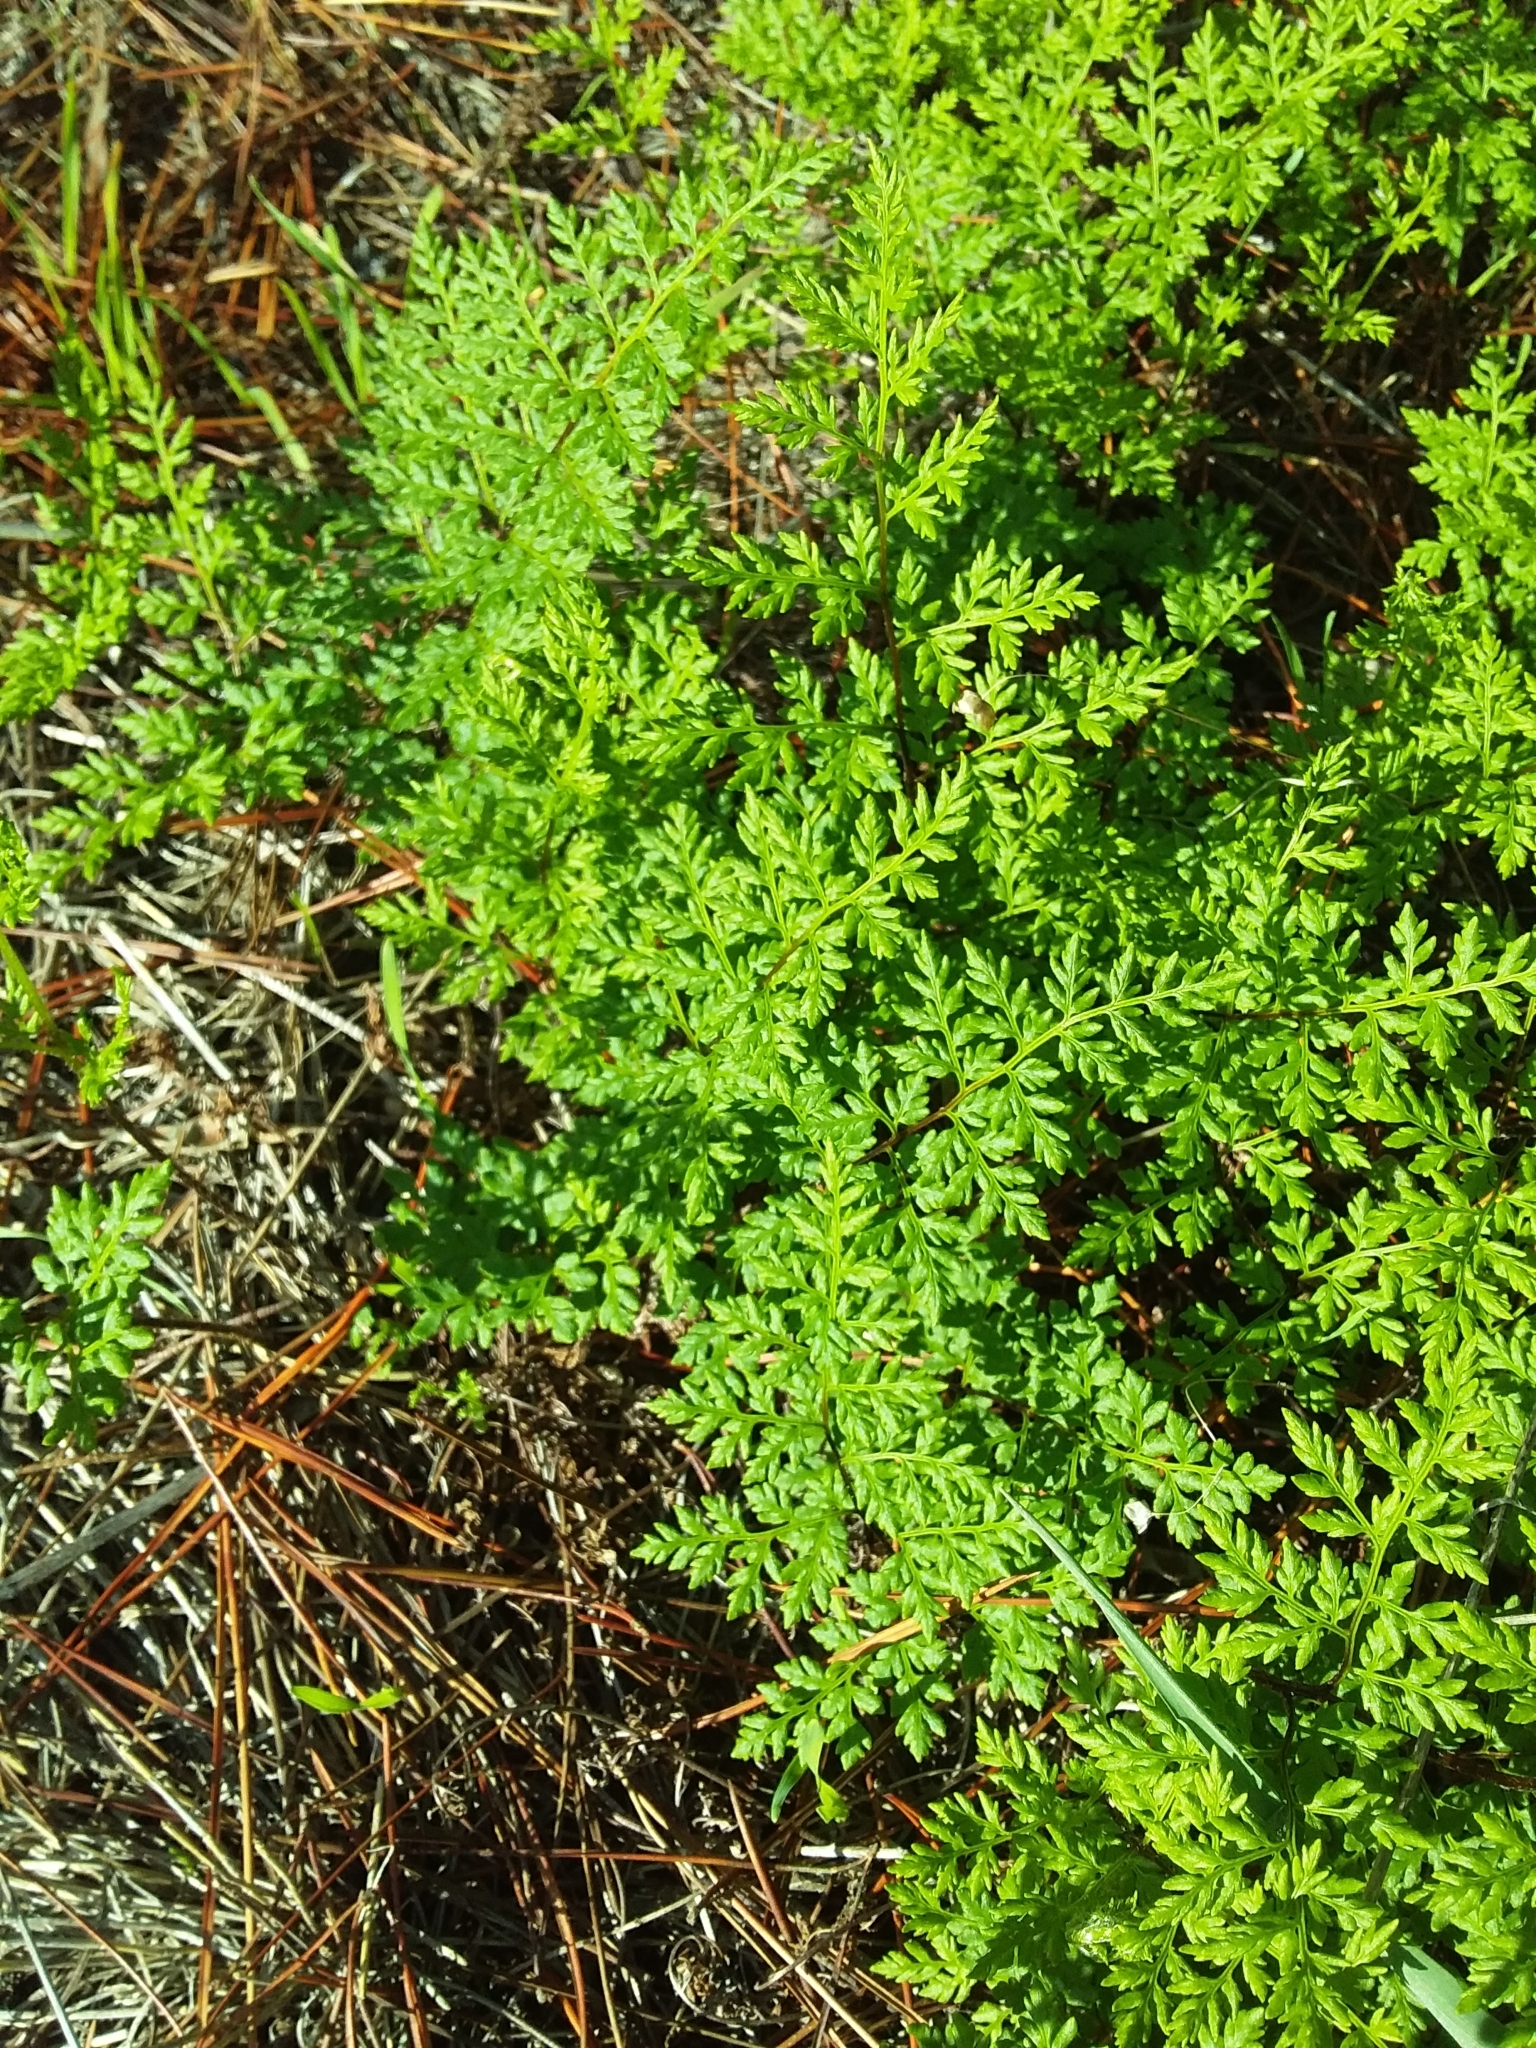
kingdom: Plantae
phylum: Tracheophyta
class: Polypodiopsida
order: Polypodiales
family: Pteridaceae
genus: Cheilanthes
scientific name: Cheilanthes austrotenuifolia
